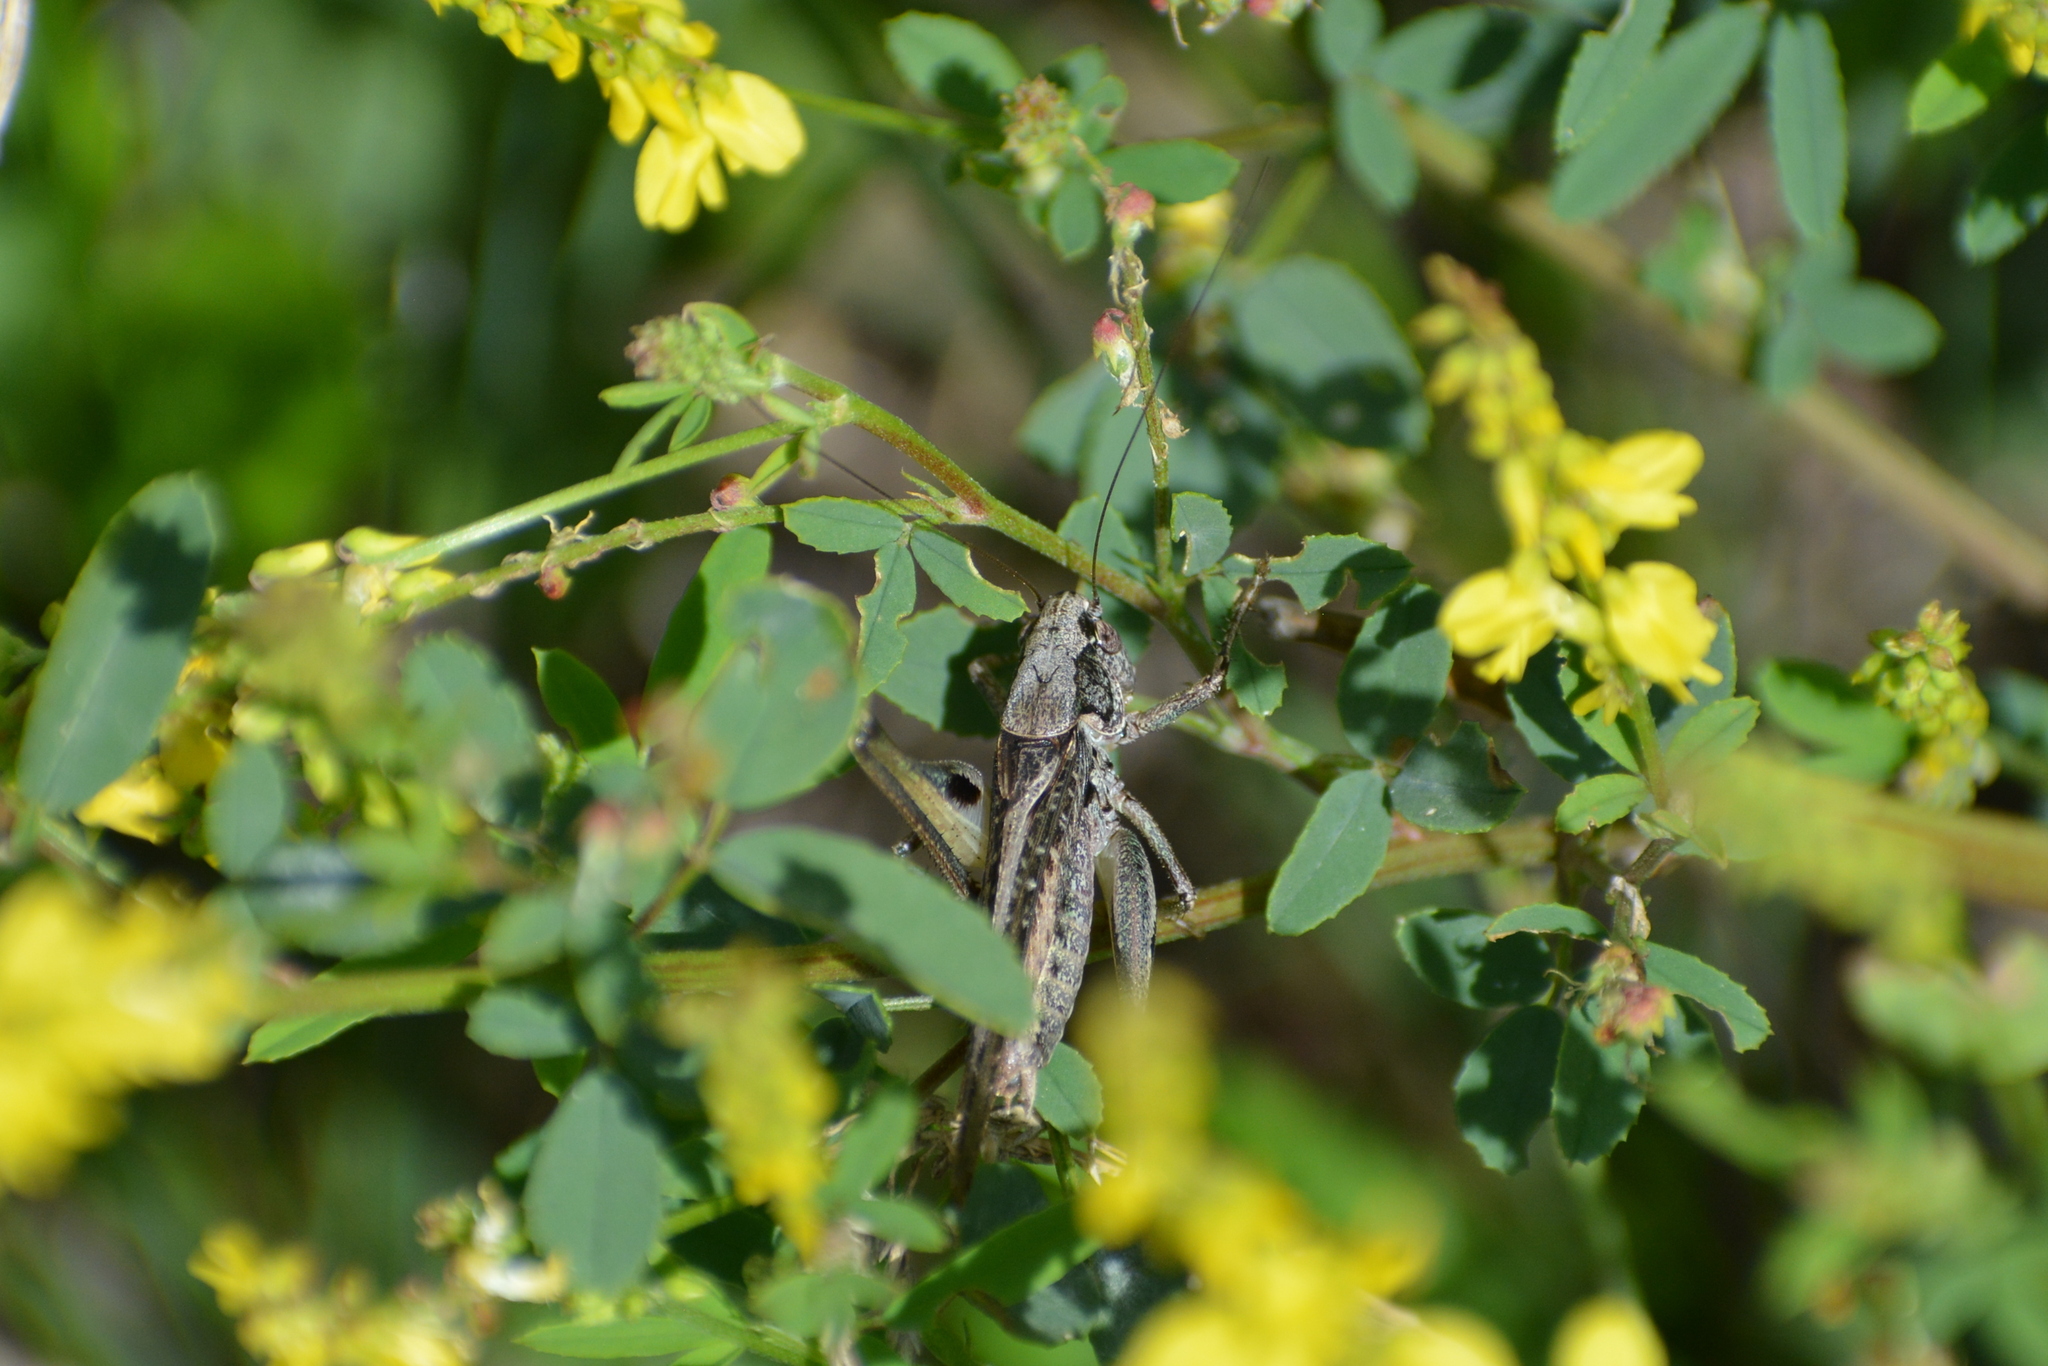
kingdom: Animalia
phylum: Arthropoda
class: Insecta
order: Orthoptera
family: Tettigoniidae
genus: Platycleis
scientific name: Platycleis albopunctata
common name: Grey bush-cricket
